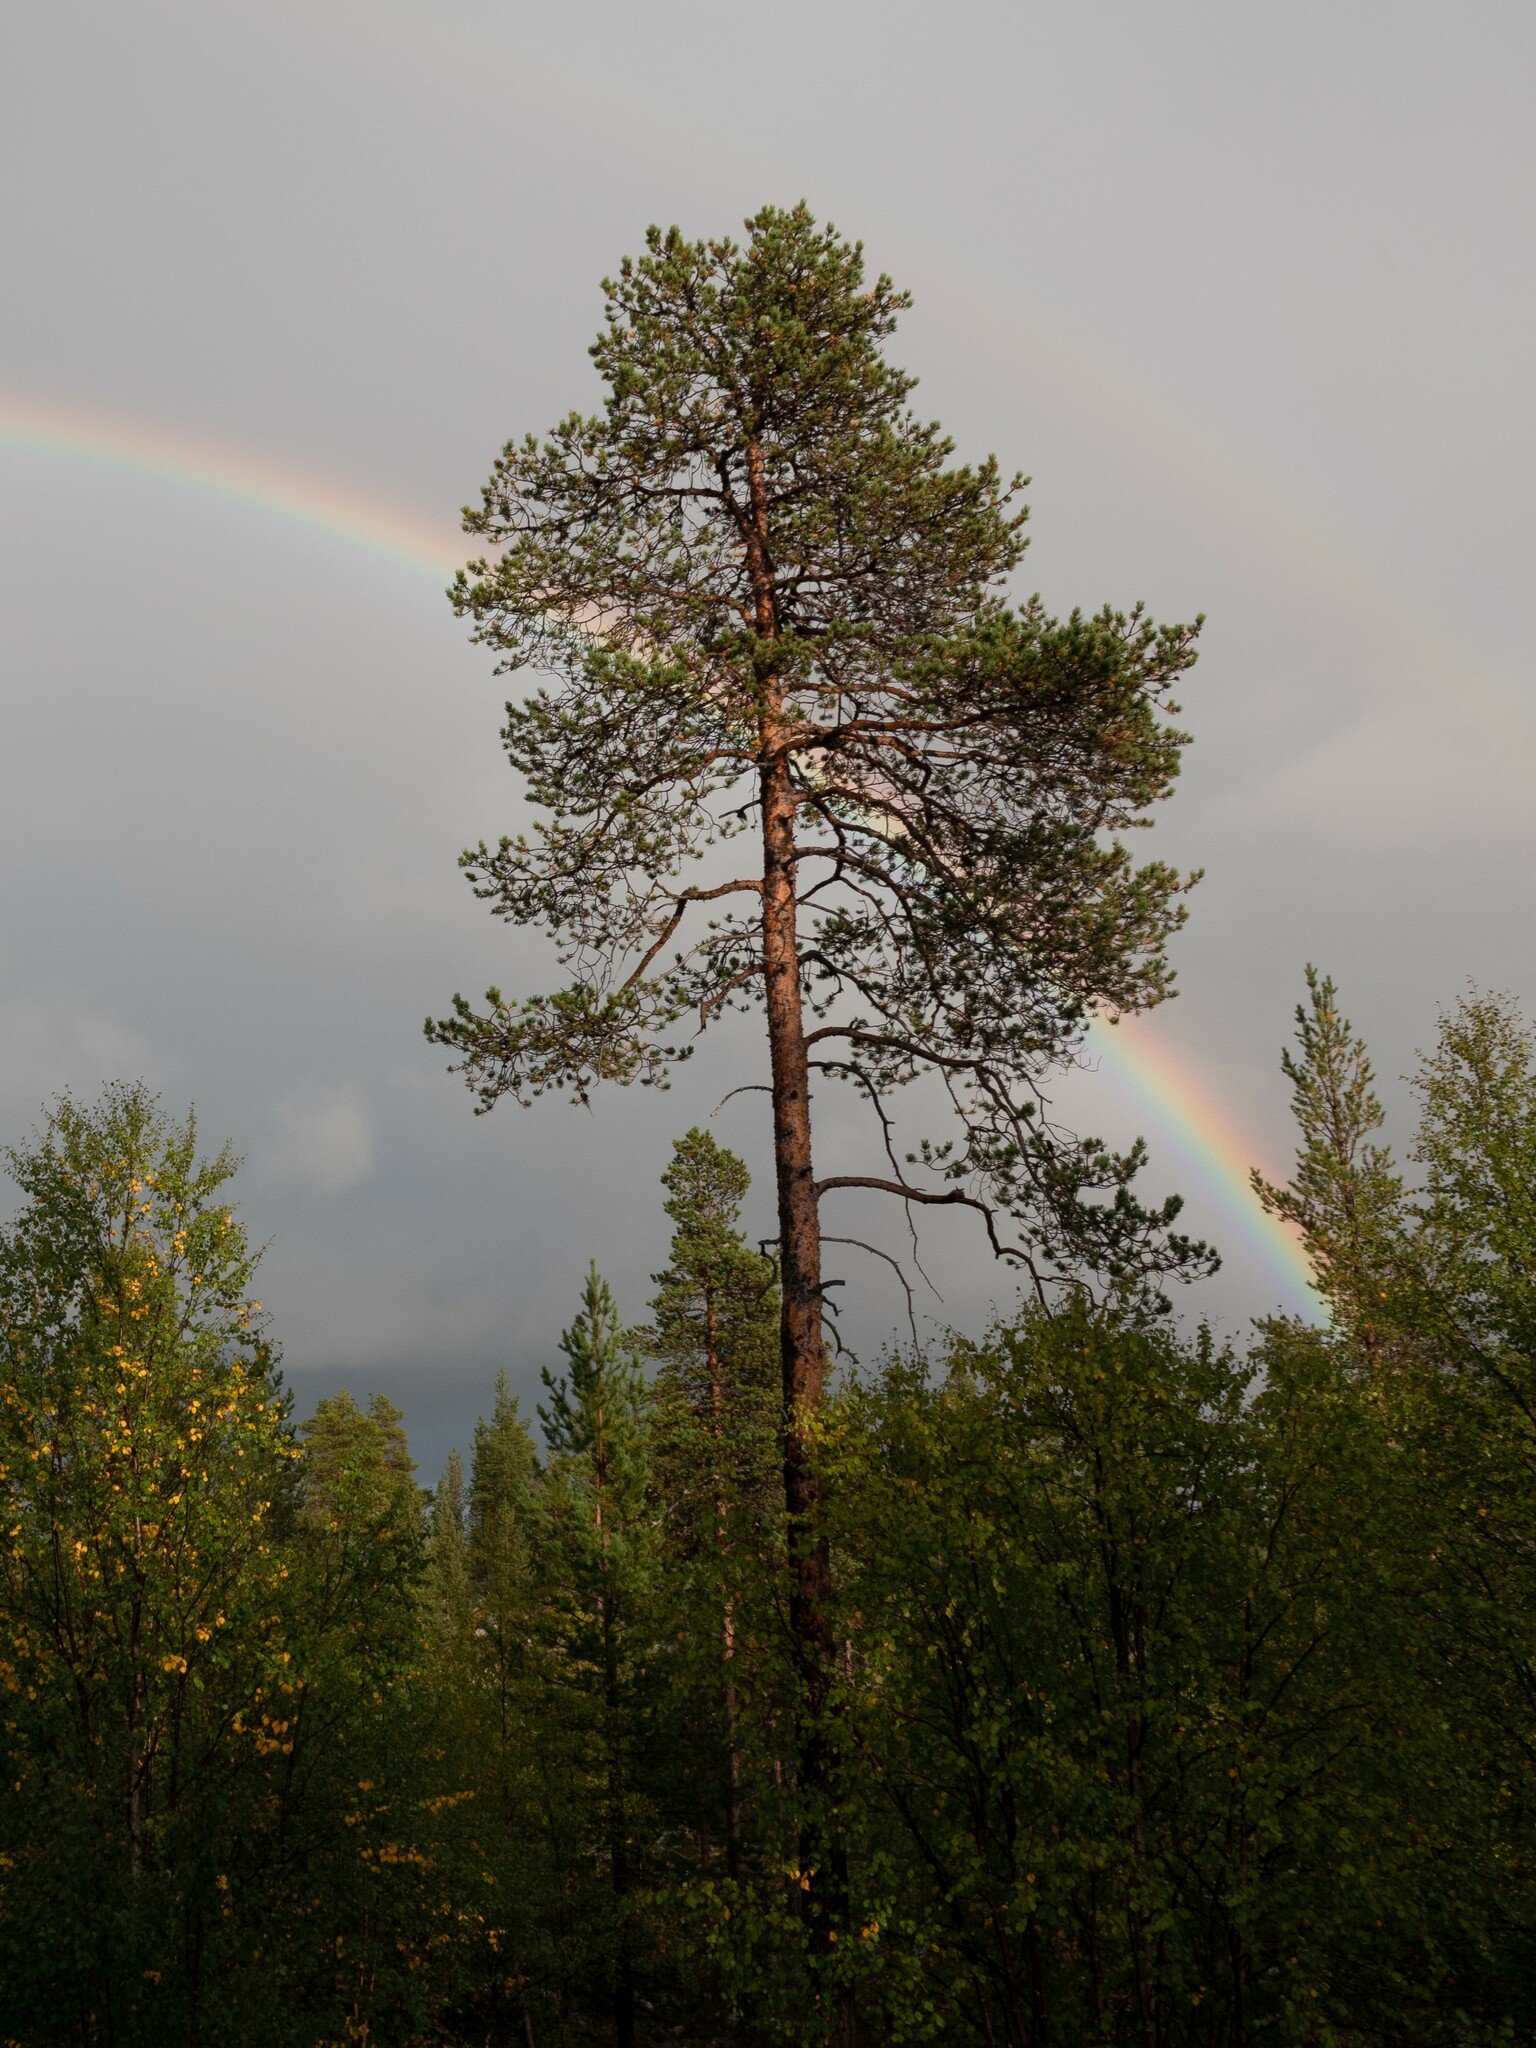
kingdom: Plantae
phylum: Tracheophyta
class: Pinopsida
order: Pinales
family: Pinaceae
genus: Pinus
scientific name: Pinus sylvestris
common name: Scots pine
